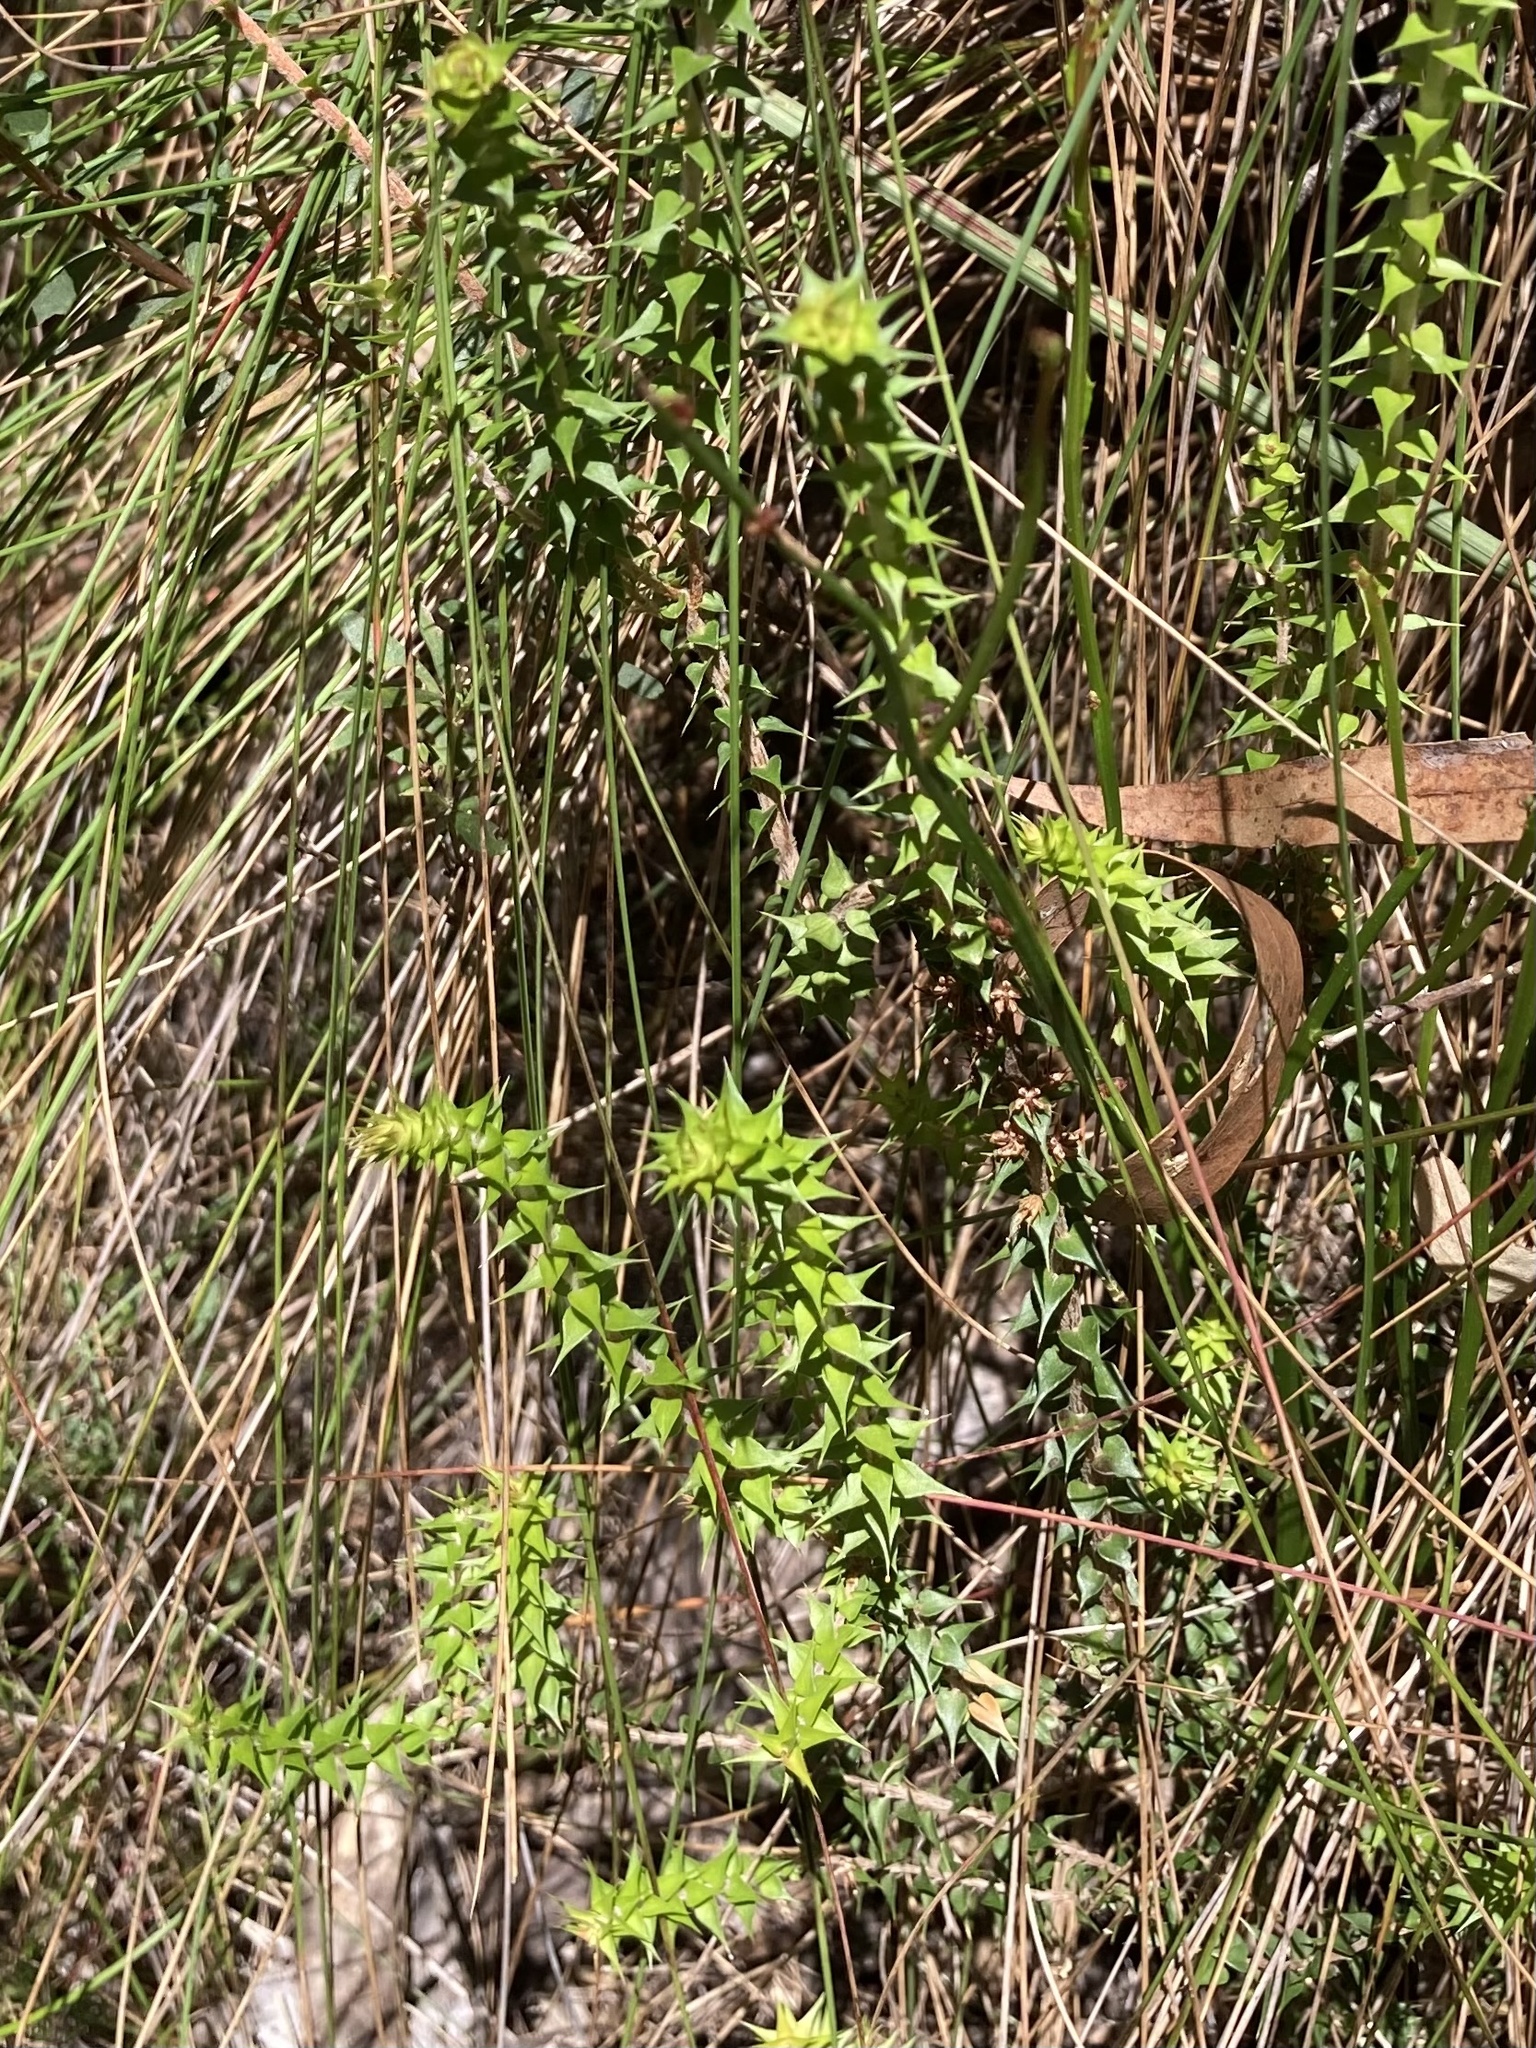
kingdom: Plantae
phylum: Tracheophyta
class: Magnoliopsida
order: Ericales
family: Ericaceae
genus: Epacris
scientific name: Epacris pulchella
